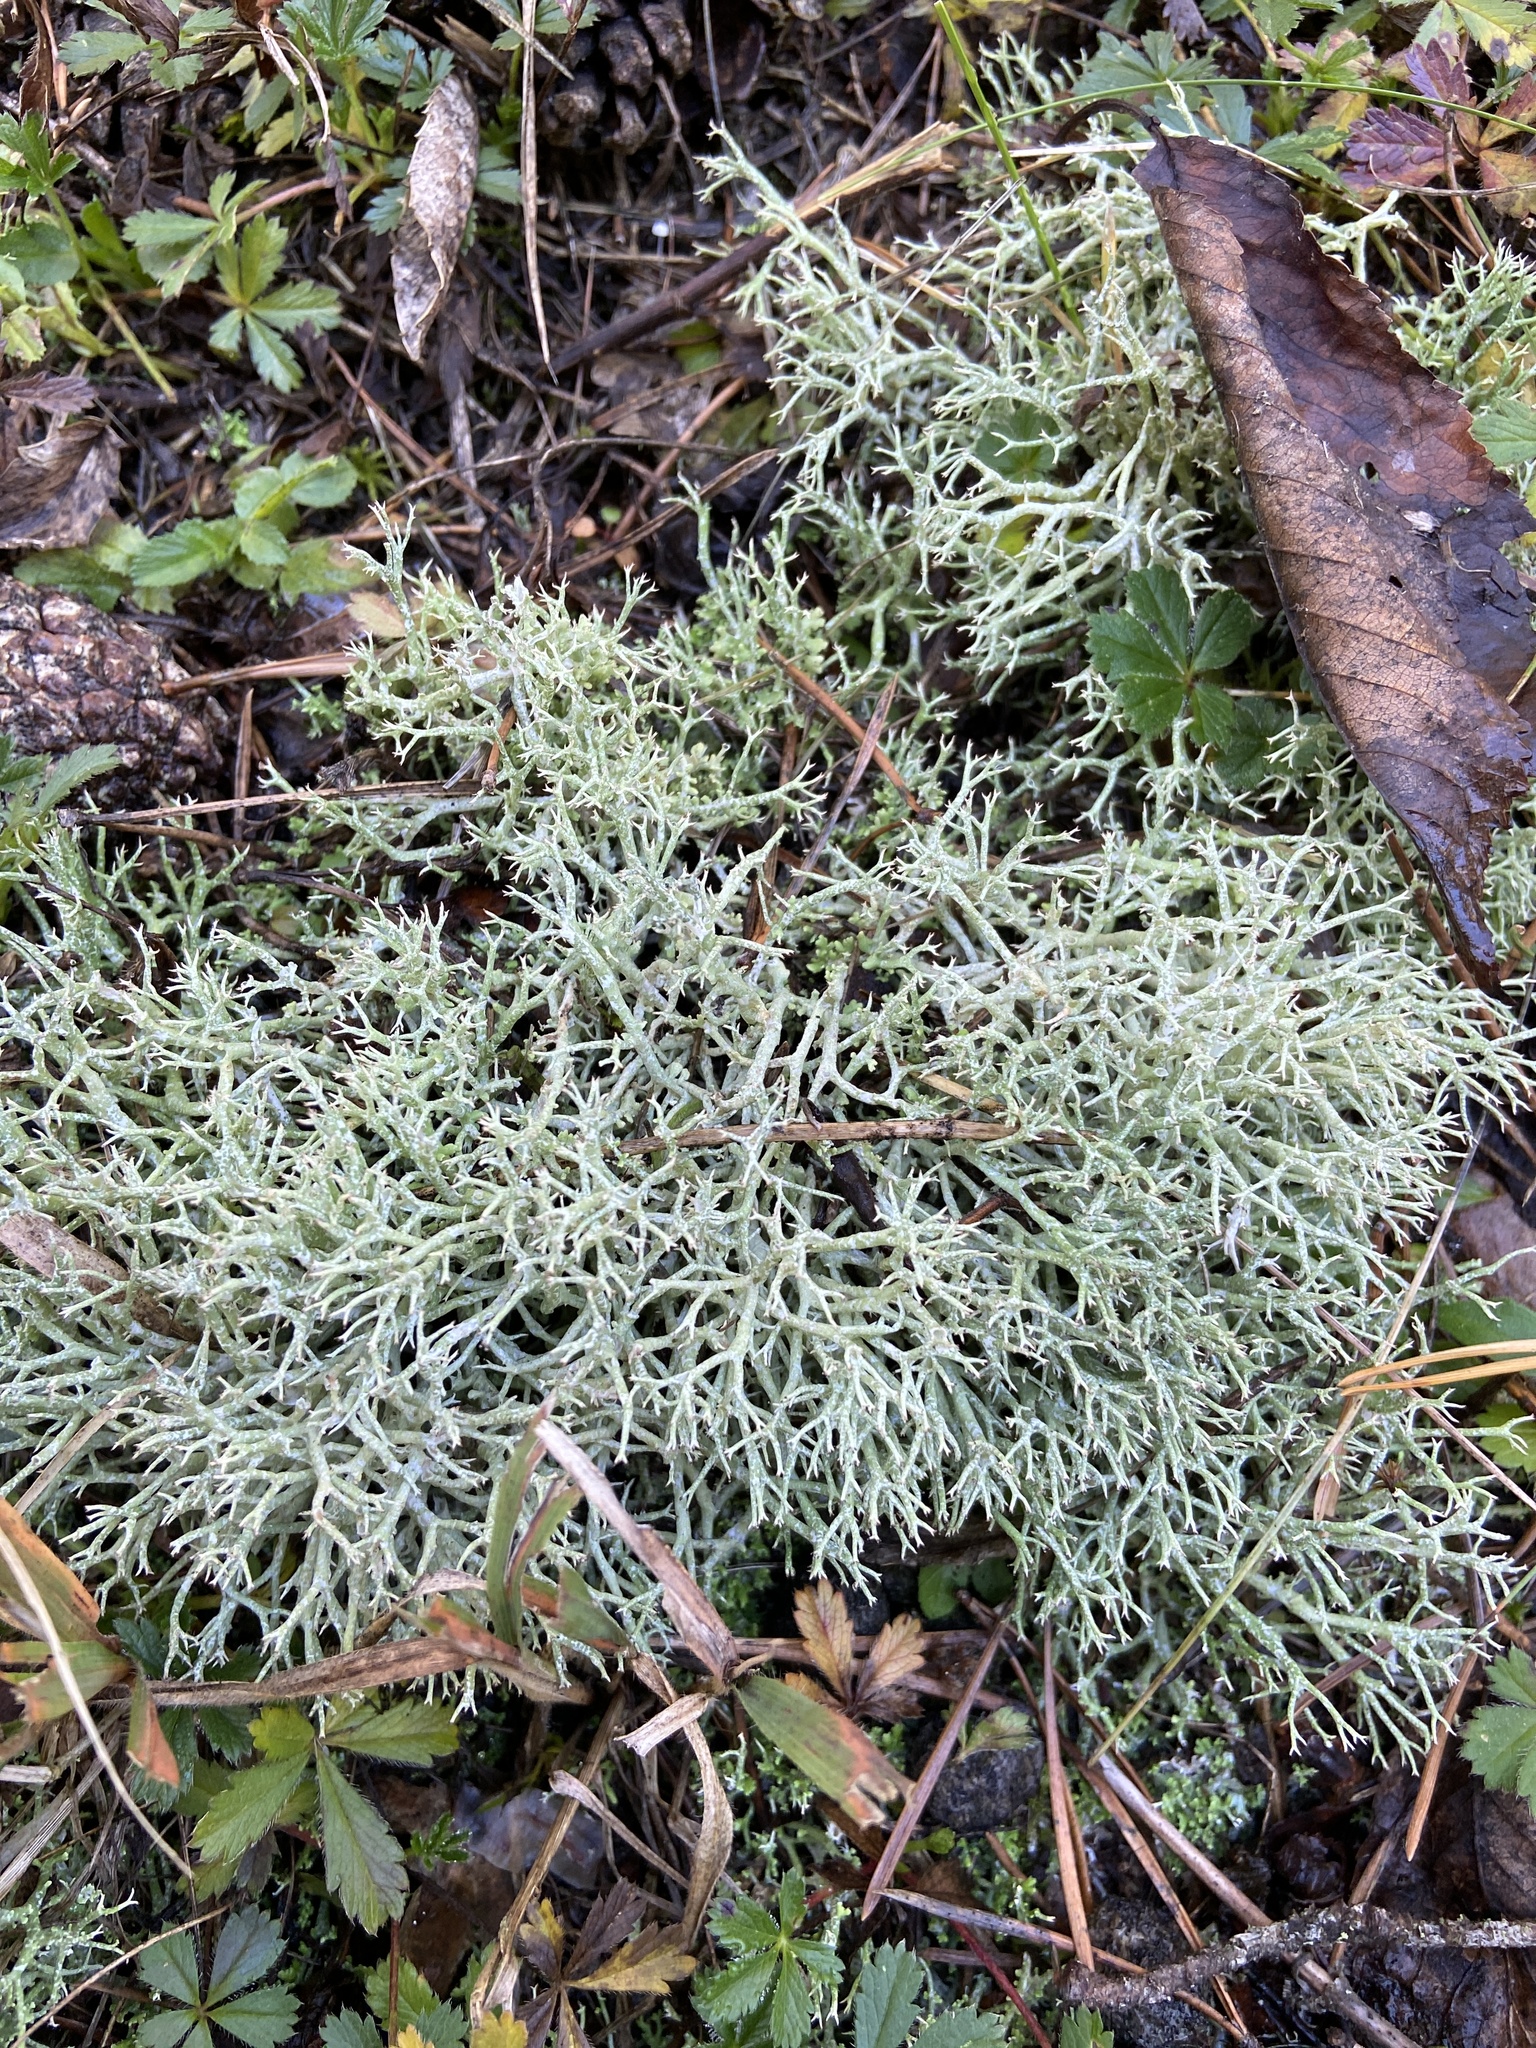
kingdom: Fungi
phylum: Ascomycota
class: Lecanoromycetes
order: Lecanorales
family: Cladoniaceae
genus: Cladonia
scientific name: Cladonia rangiformis
